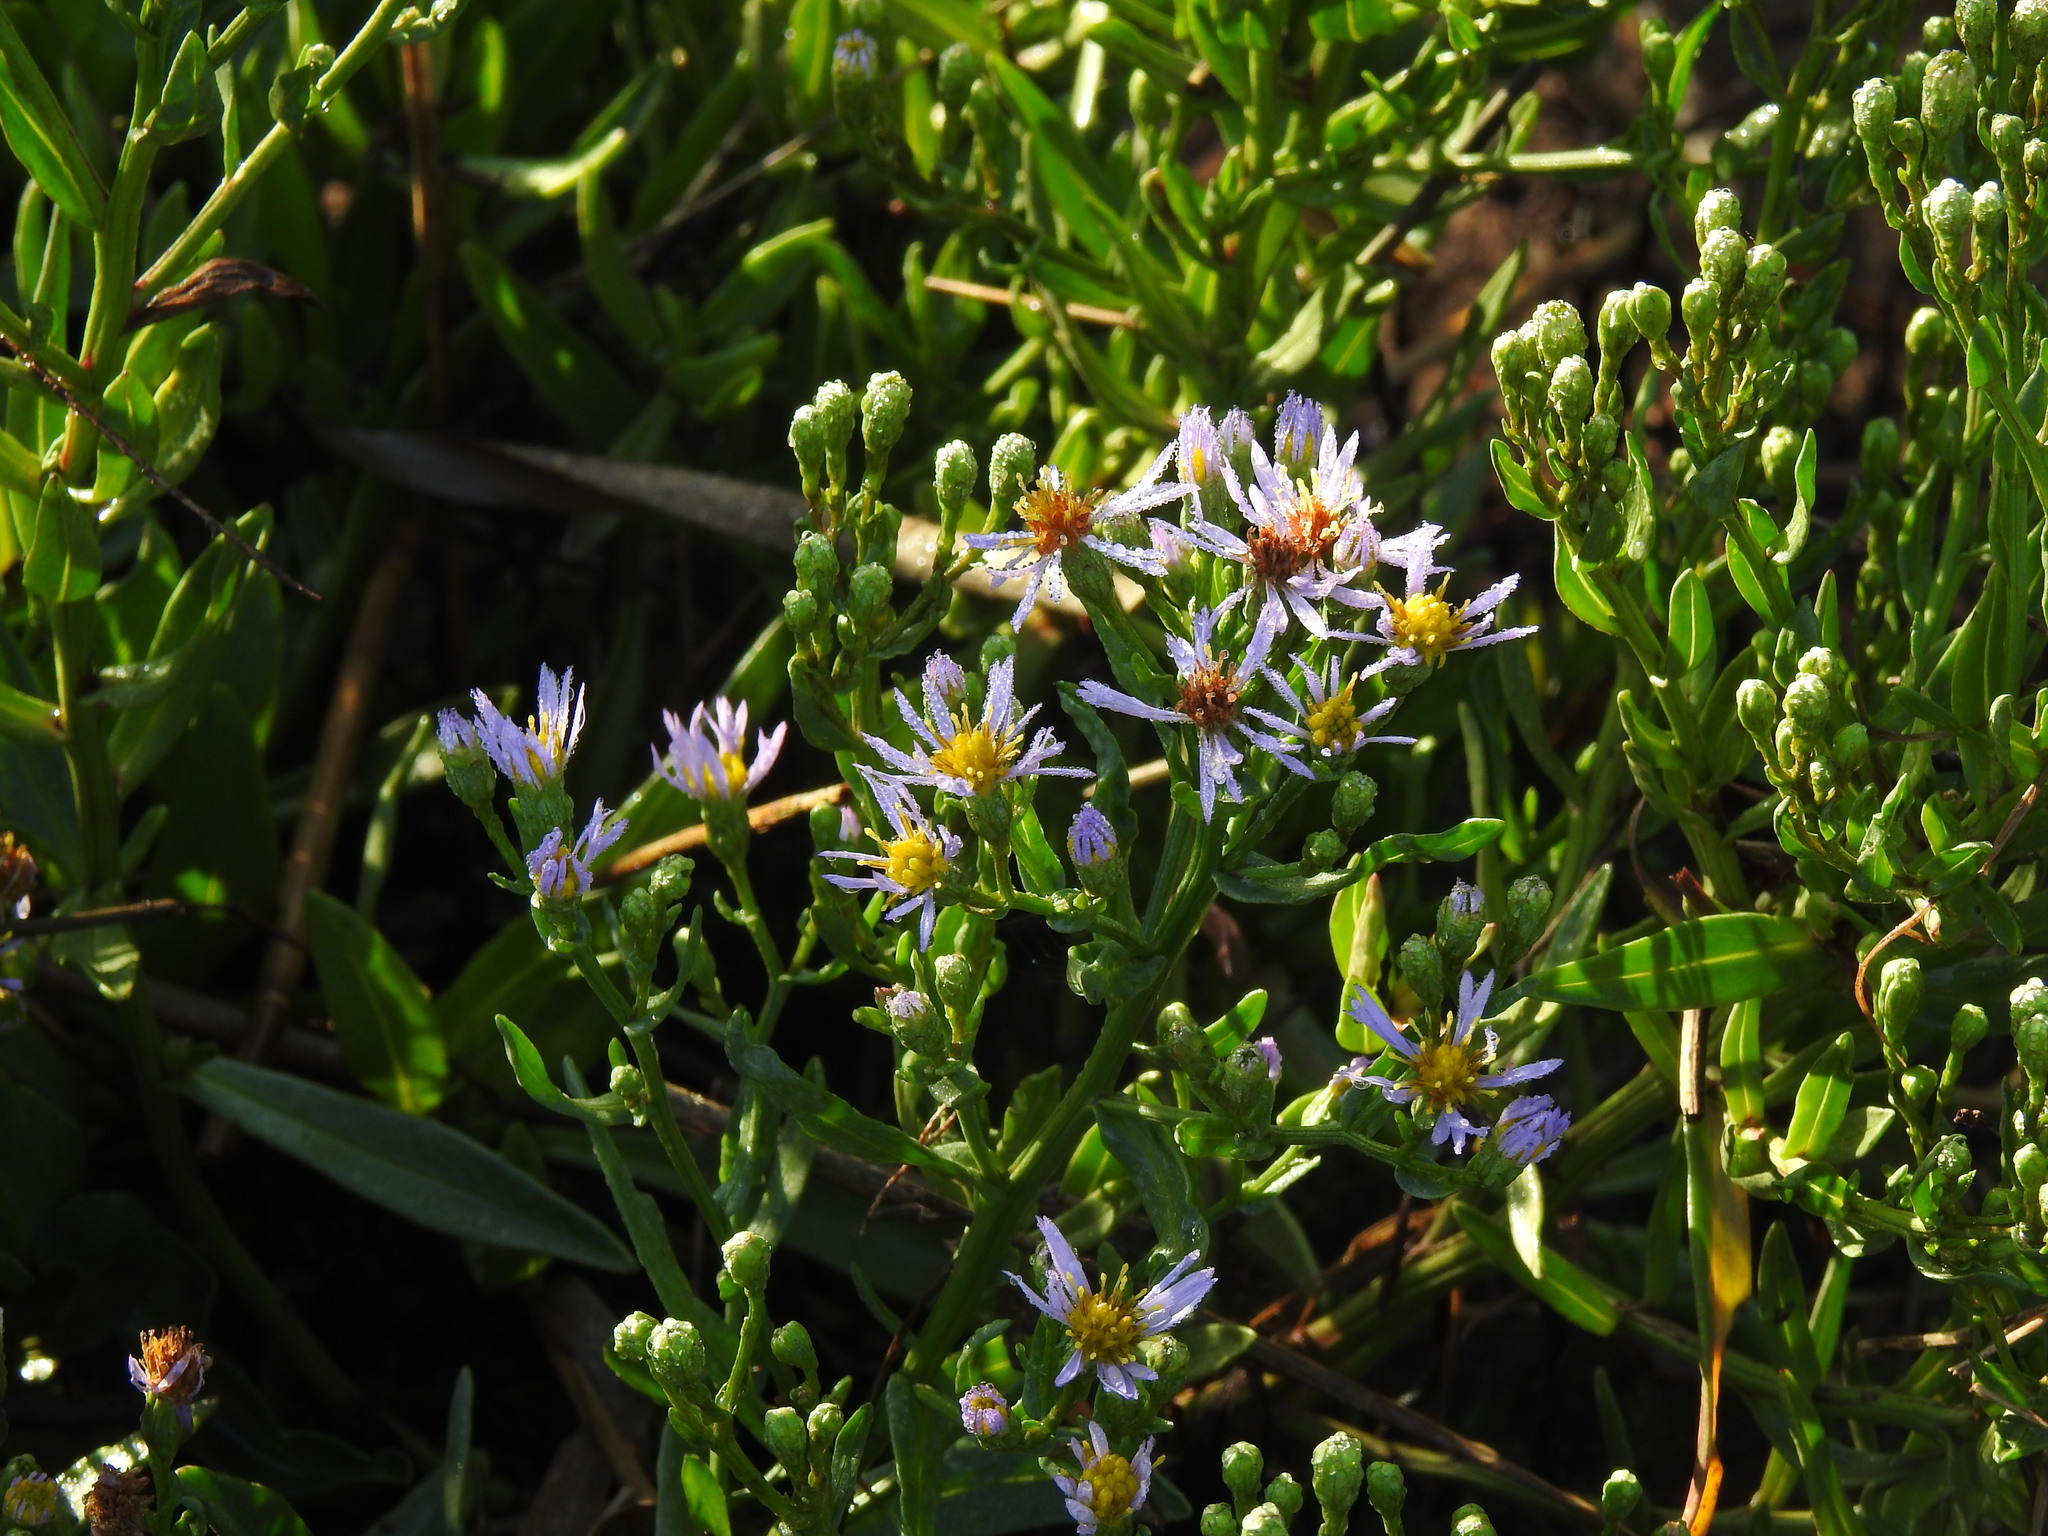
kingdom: Plantae
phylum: Tracheophyta
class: Magnoliopsida
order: Asterales
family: Asteraceae
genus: Tripolium
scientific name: Tripolium pannonicum
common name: Sea aster
